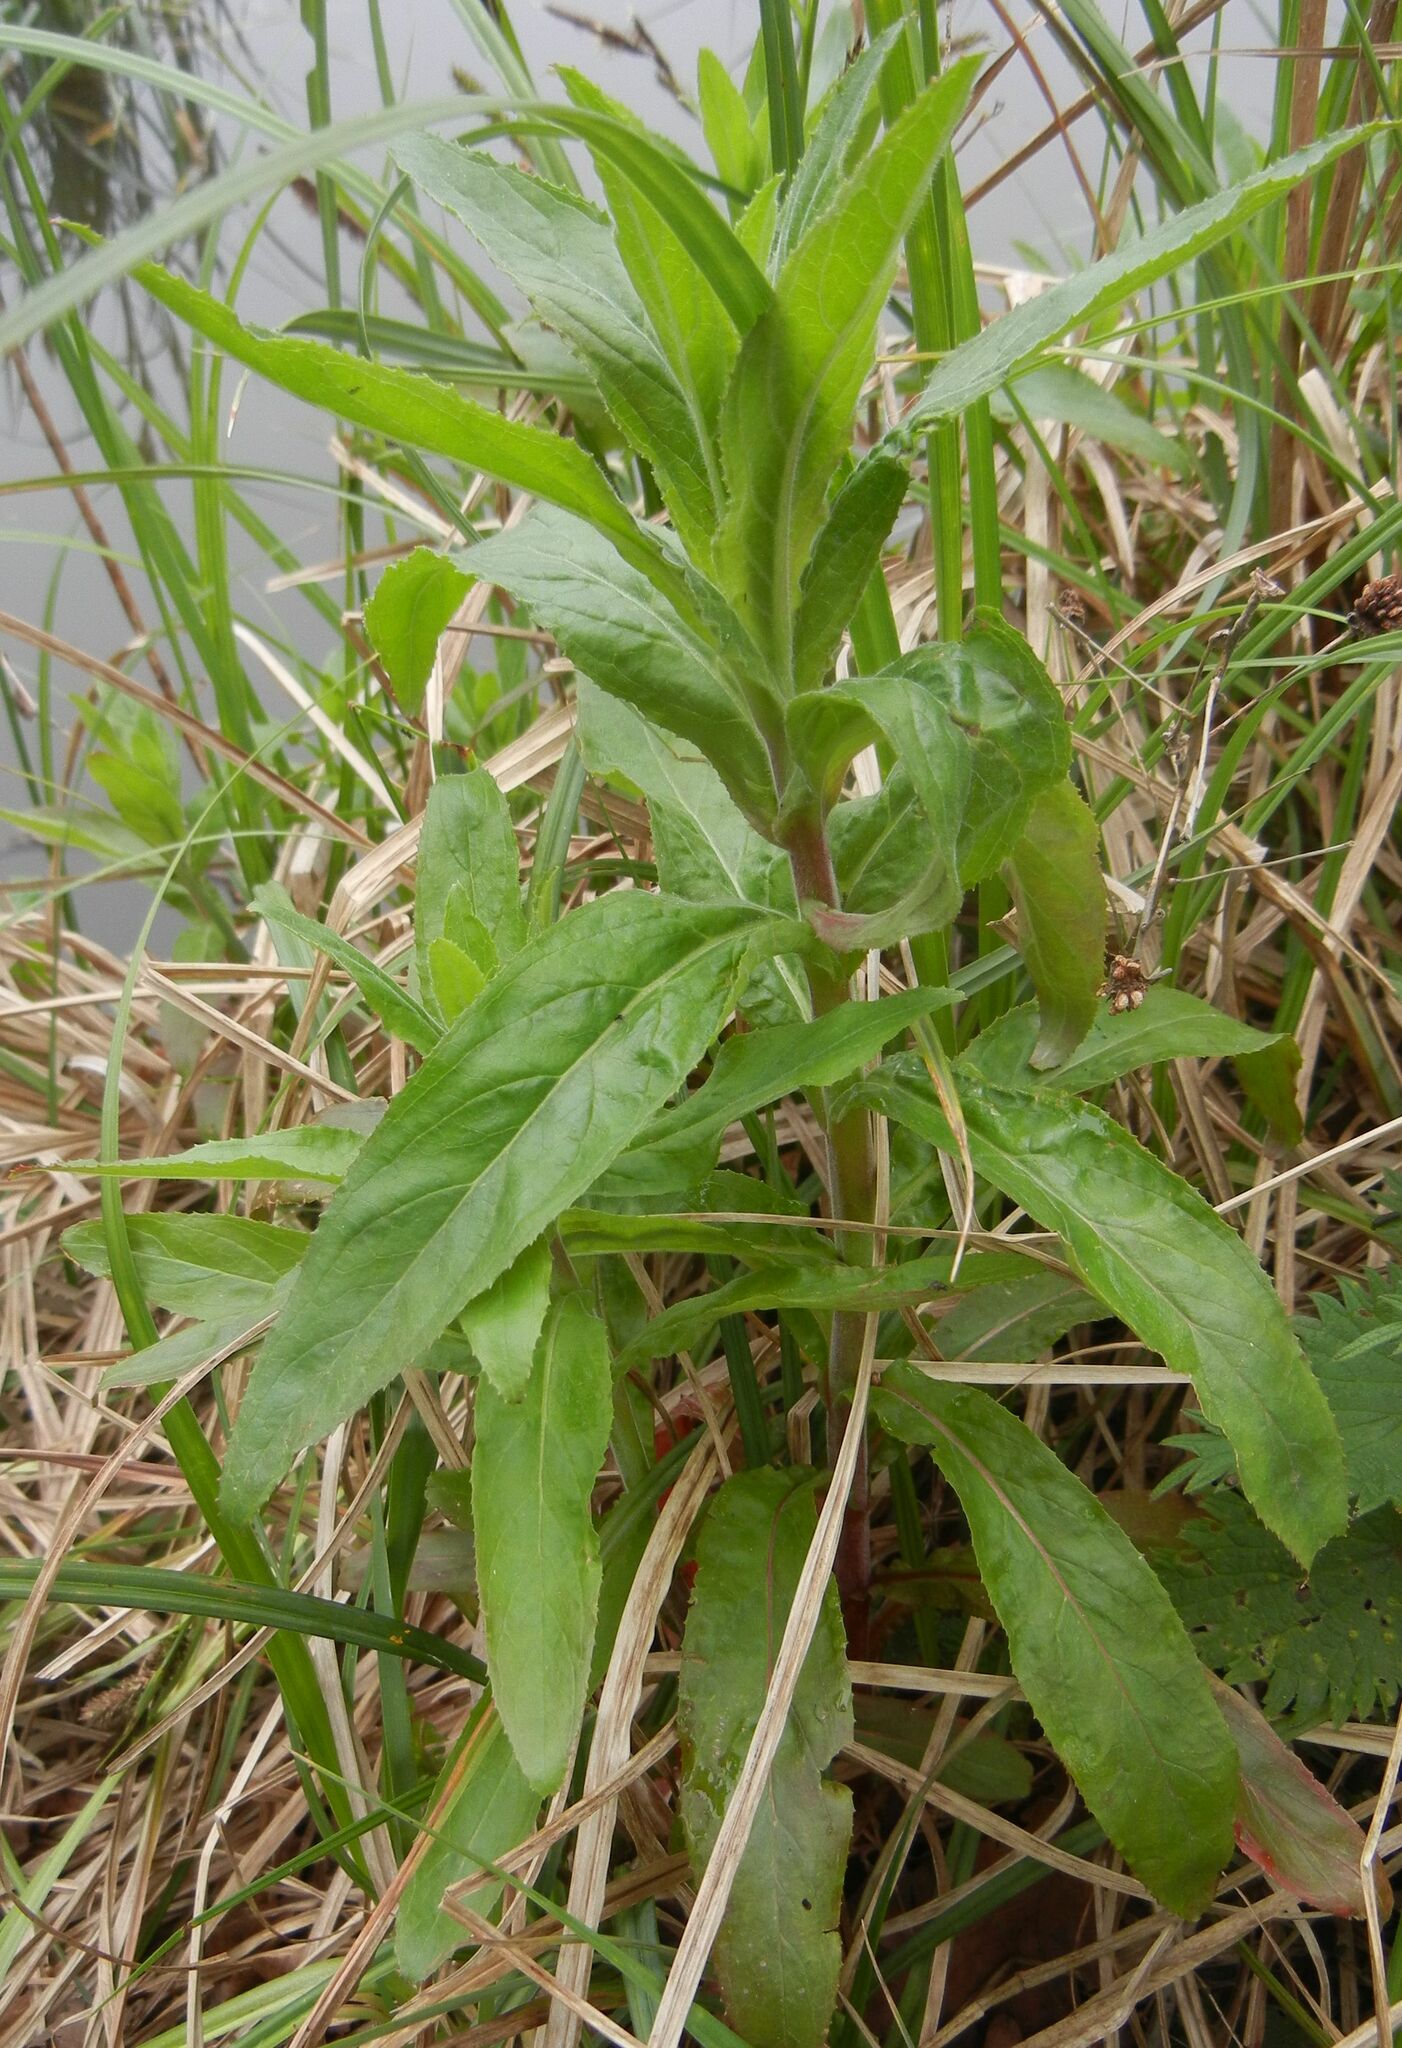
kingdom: Plantae
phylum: Tracheophyta
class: Magnoliopsida
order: Myrtales
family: Onagraceae
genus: Epilobium
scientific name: Epilobium hirsutum
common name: Great willowherb
